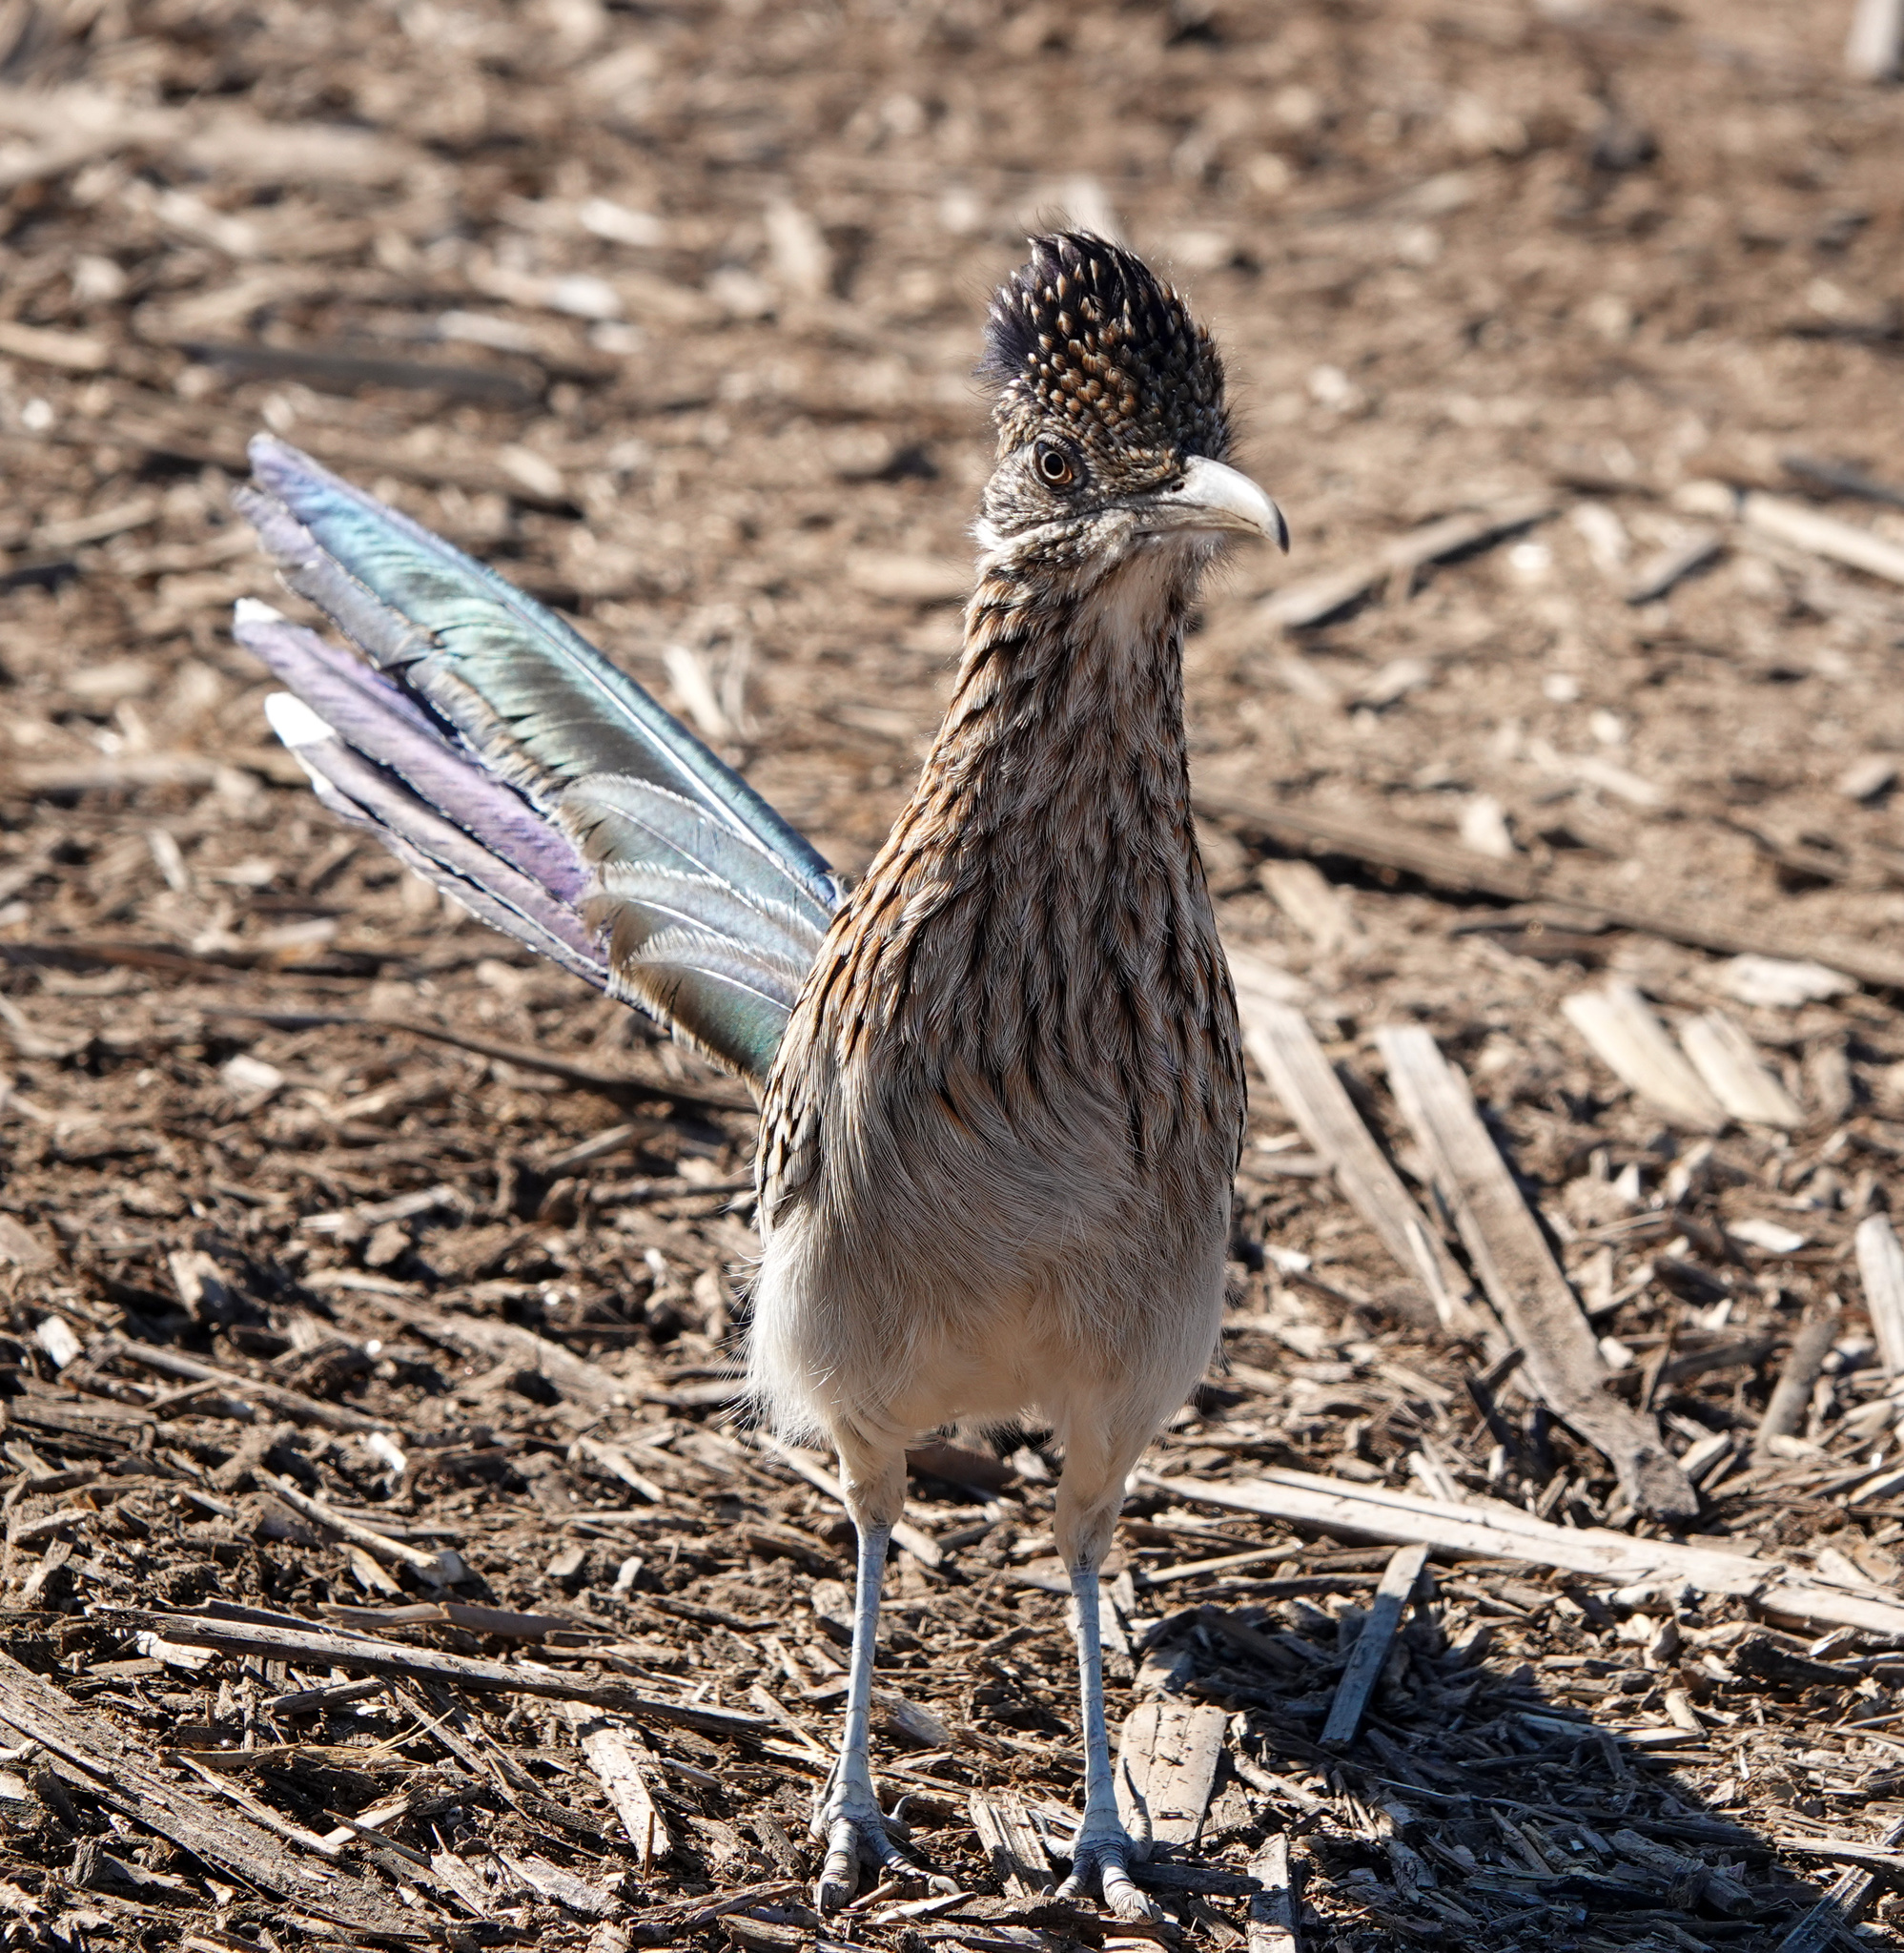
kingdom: Animalia
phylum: Chordata
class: Aves
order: Cuculiformes
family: Cuculidae
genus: Geococcyx
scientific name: Geococcyx californianus
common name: Greater roadrunner
